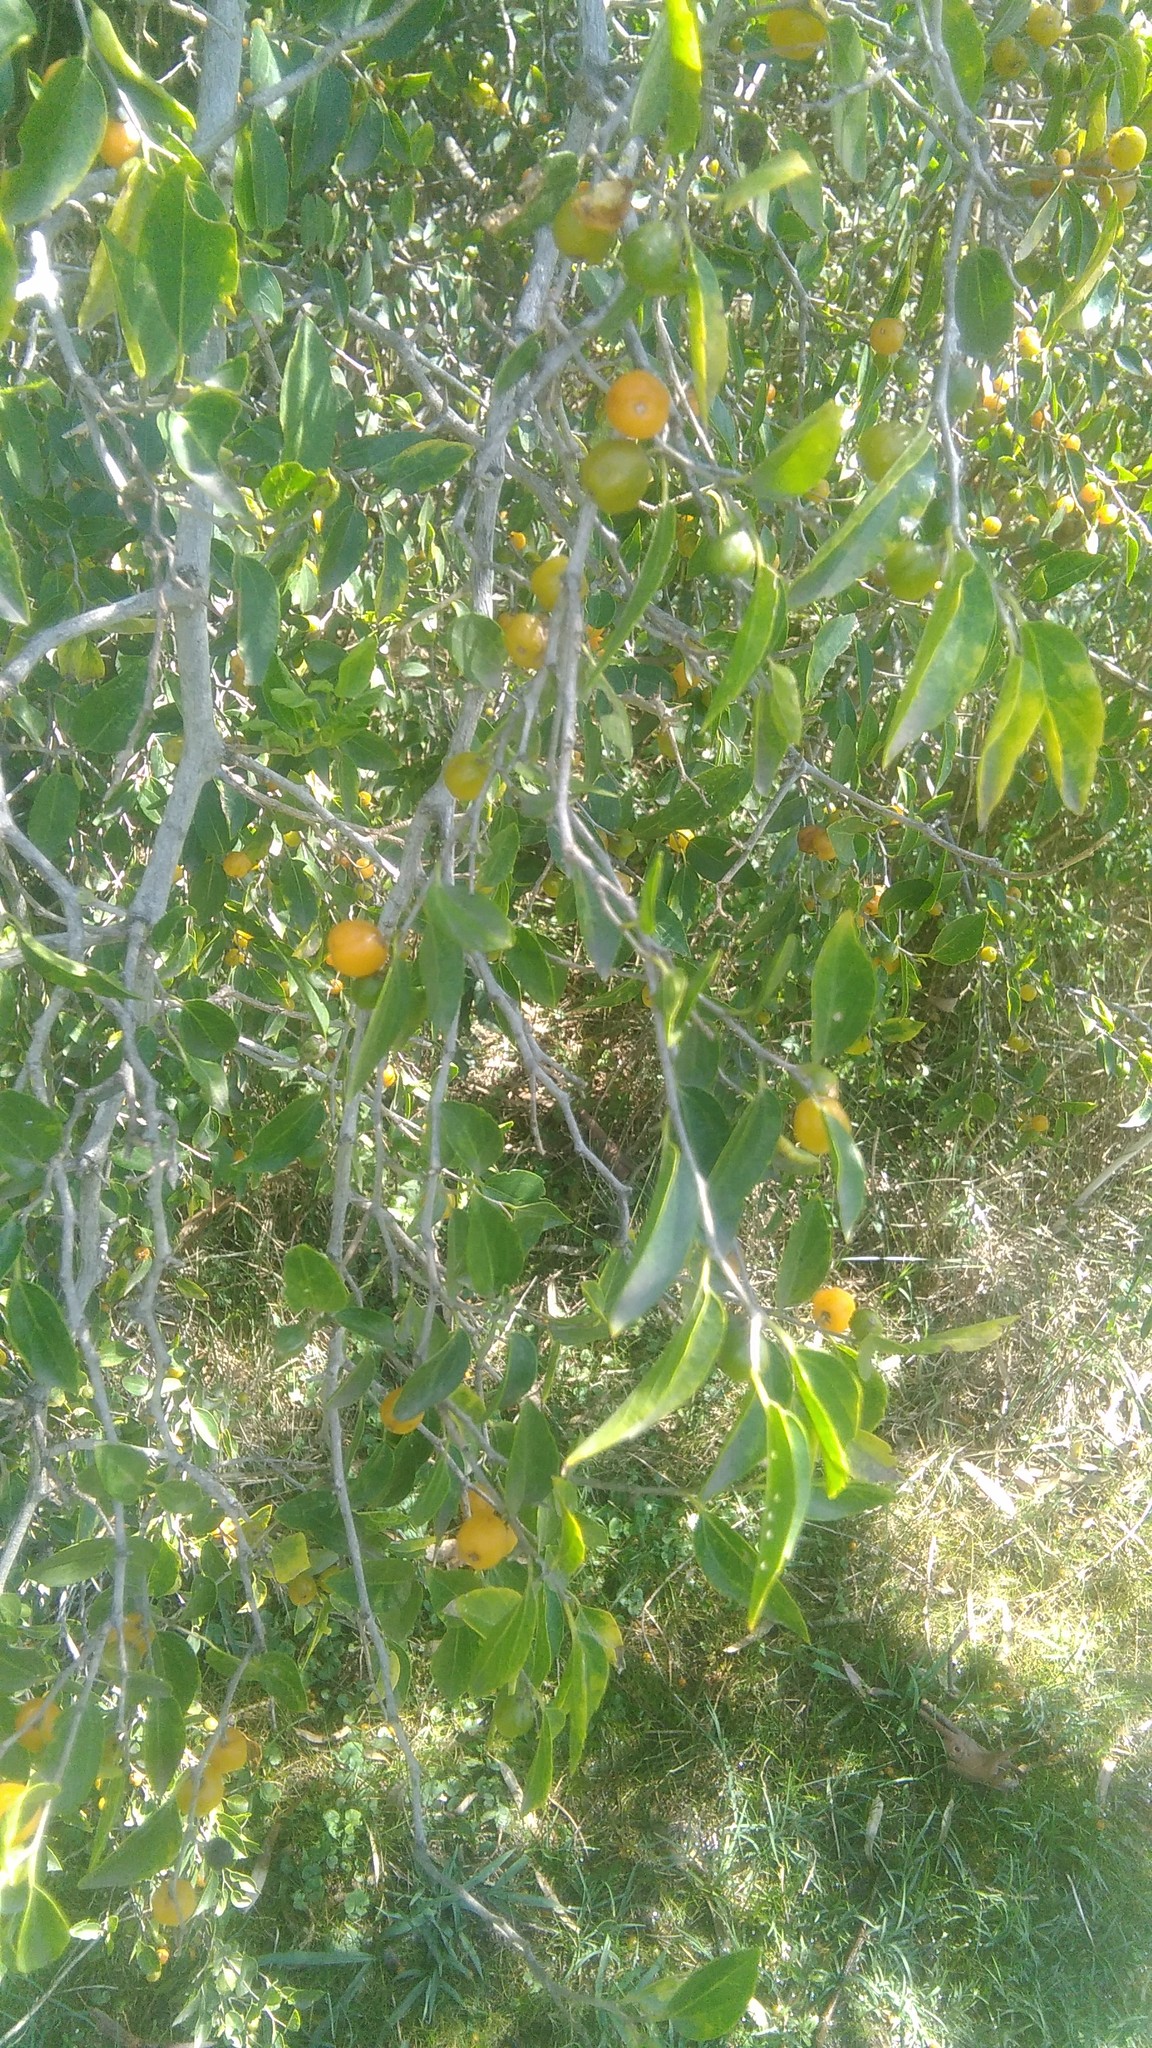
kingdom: Plantae
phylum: Tracheophyta
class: Magnoliopsida
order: Rosales
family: Cannabaceae
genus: Celtis
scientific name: Celtis tala
